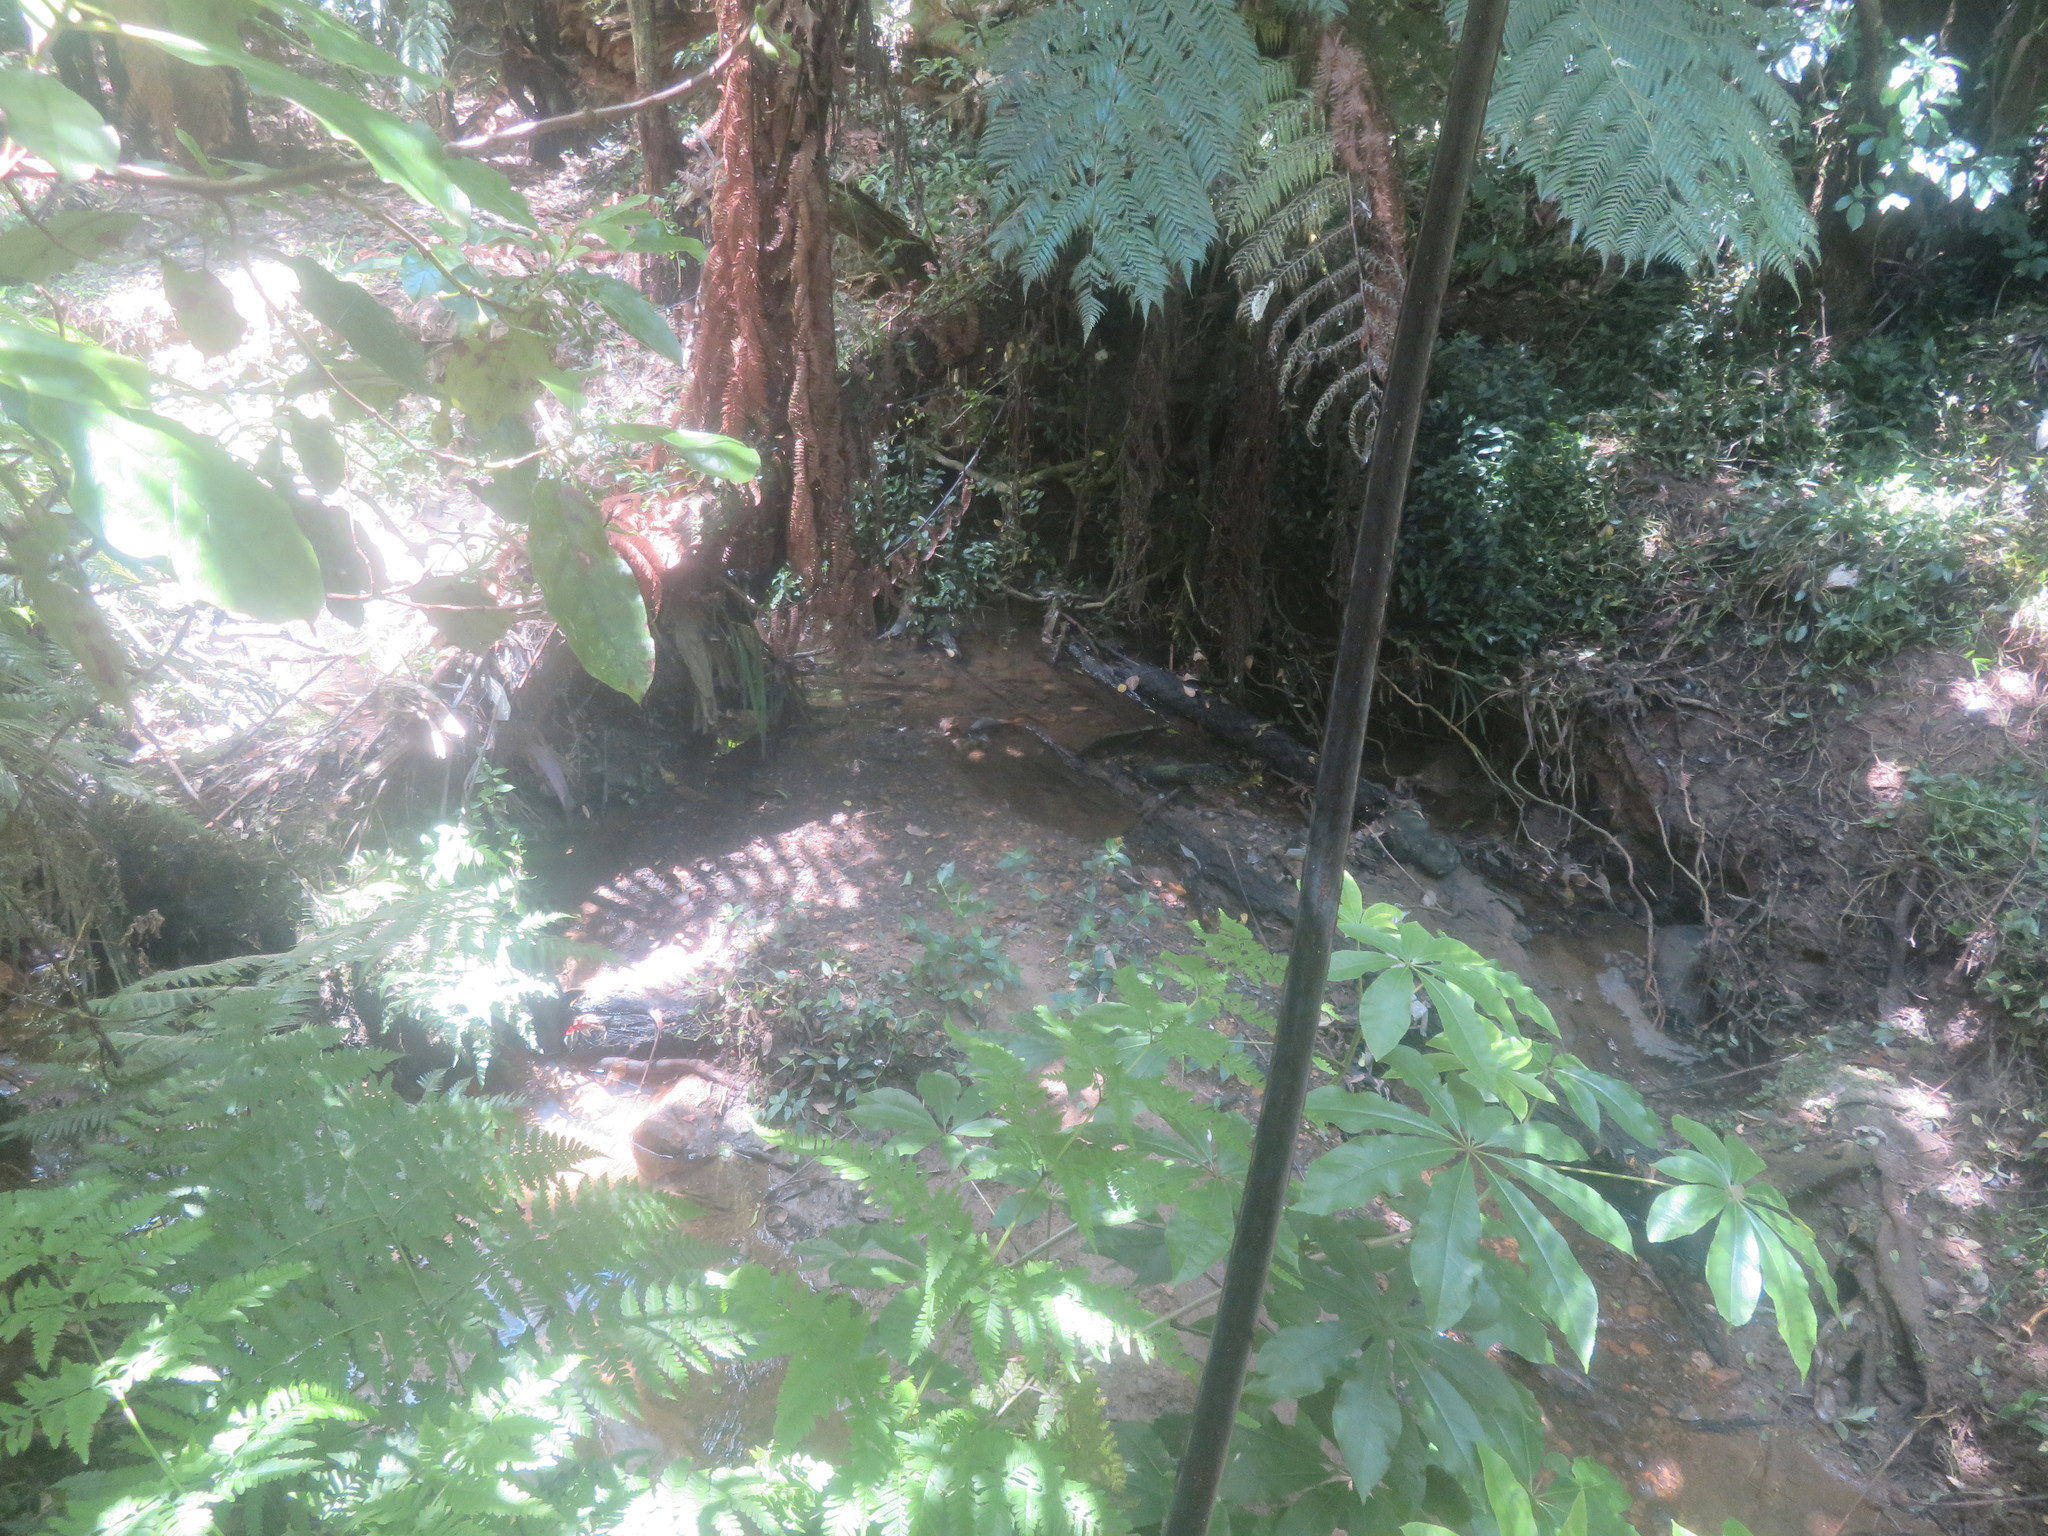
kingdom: Plantae
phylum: Tracheophyta
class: Magnoliopsida
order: Apiales
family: Araliaceae
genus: Schefflera
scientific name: Schefflera digitata
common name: Pate
